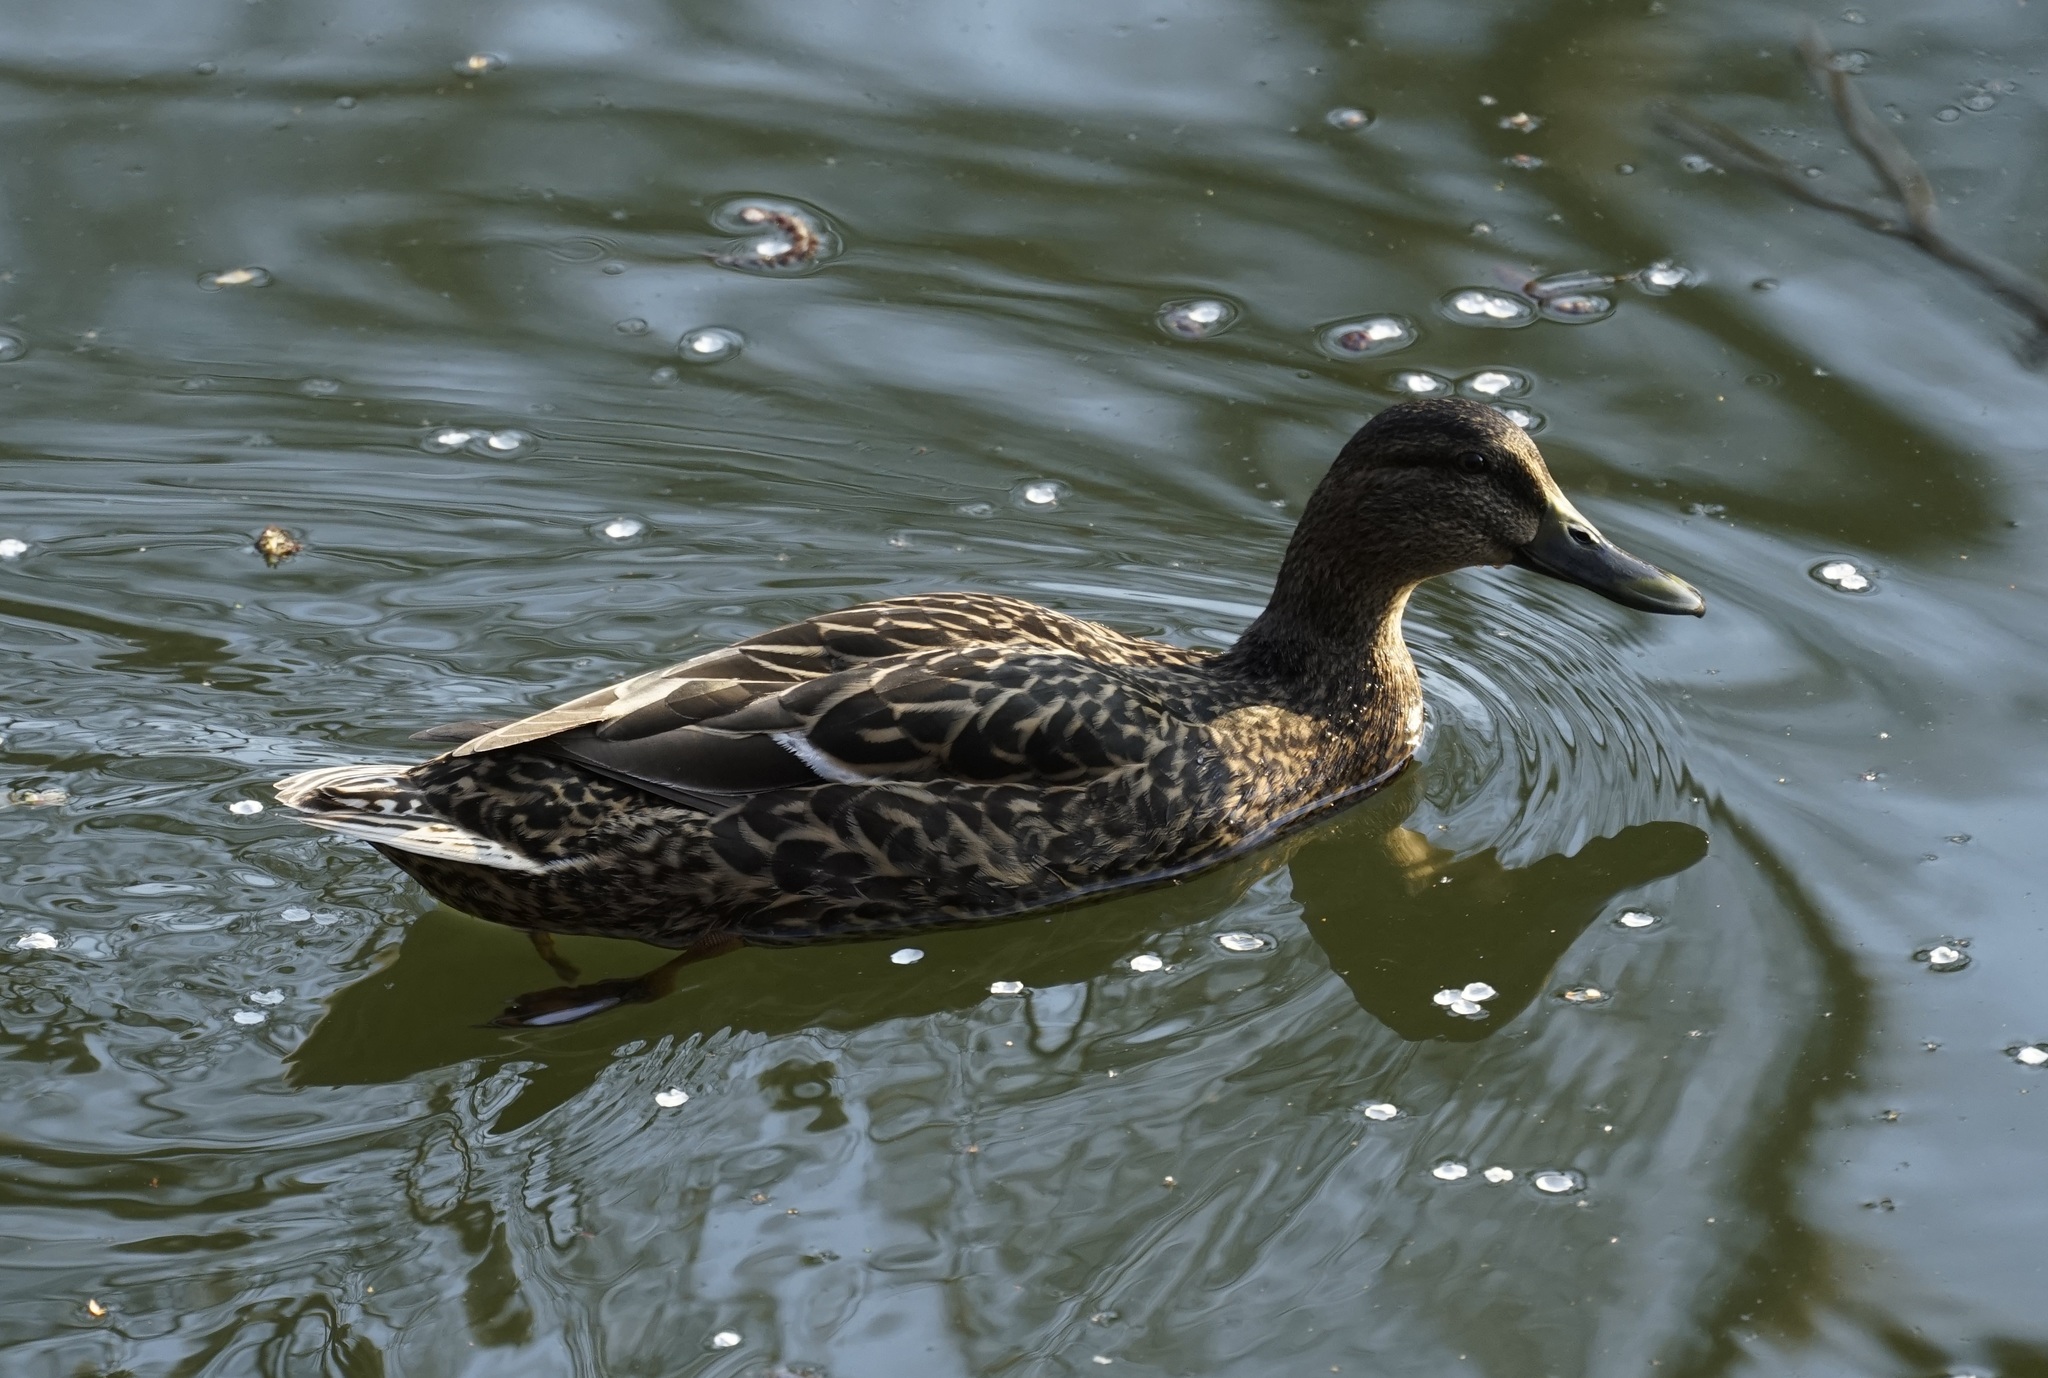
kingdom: Animalia
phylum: Chordata
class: Aves
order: Anseriformes
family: Anatidae
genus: Anas
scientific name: Anas platyrhynchos
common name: Mallard
